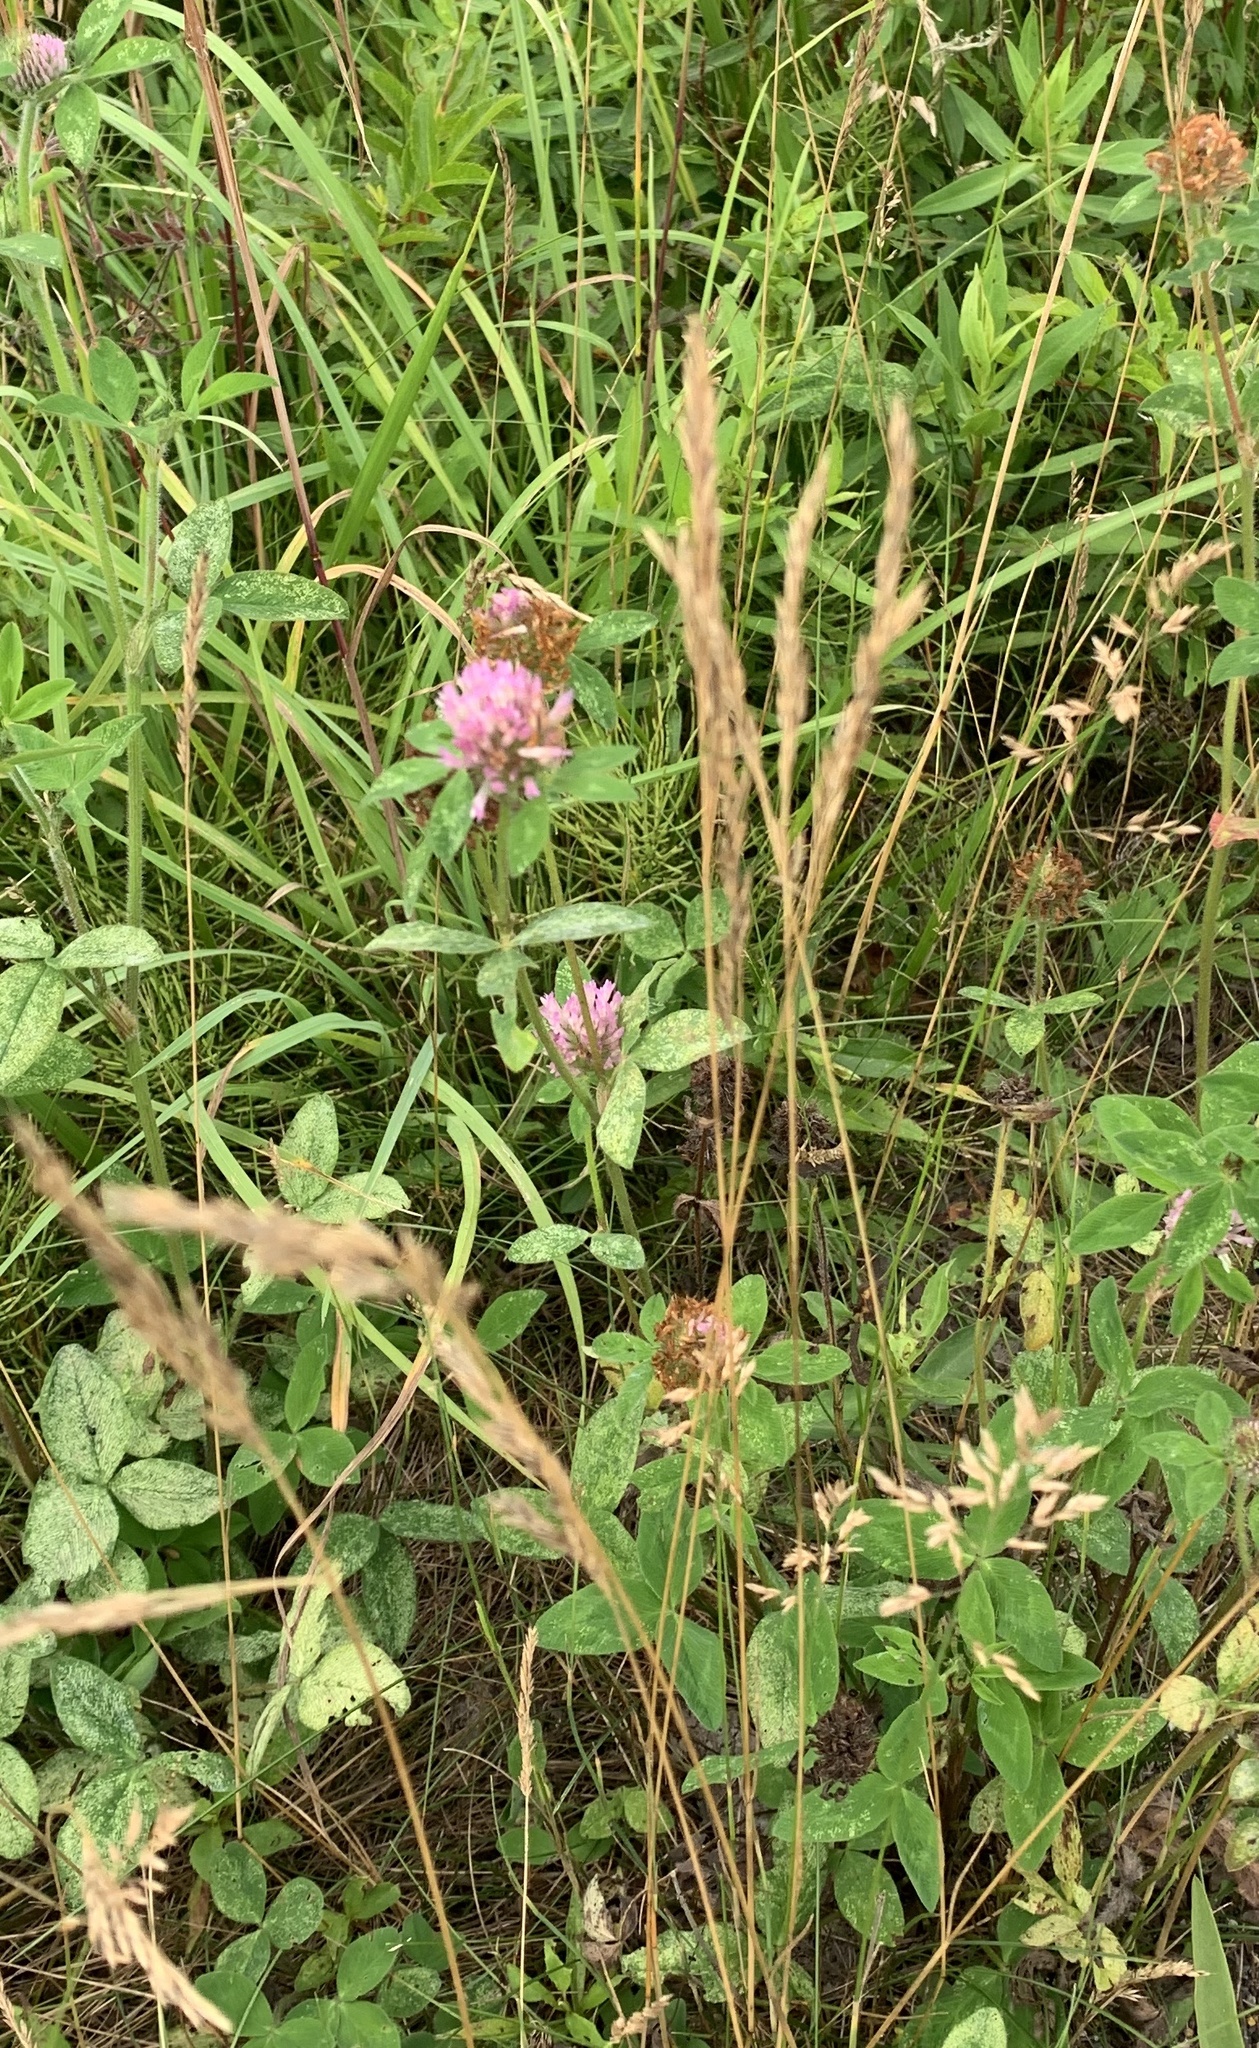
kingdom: Plantae
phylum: Tracheophyta
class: Magnoliopsida
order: Fabales
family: Fabaceae
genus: Trifolium
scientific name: Trifolium pratense
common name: Red clover
